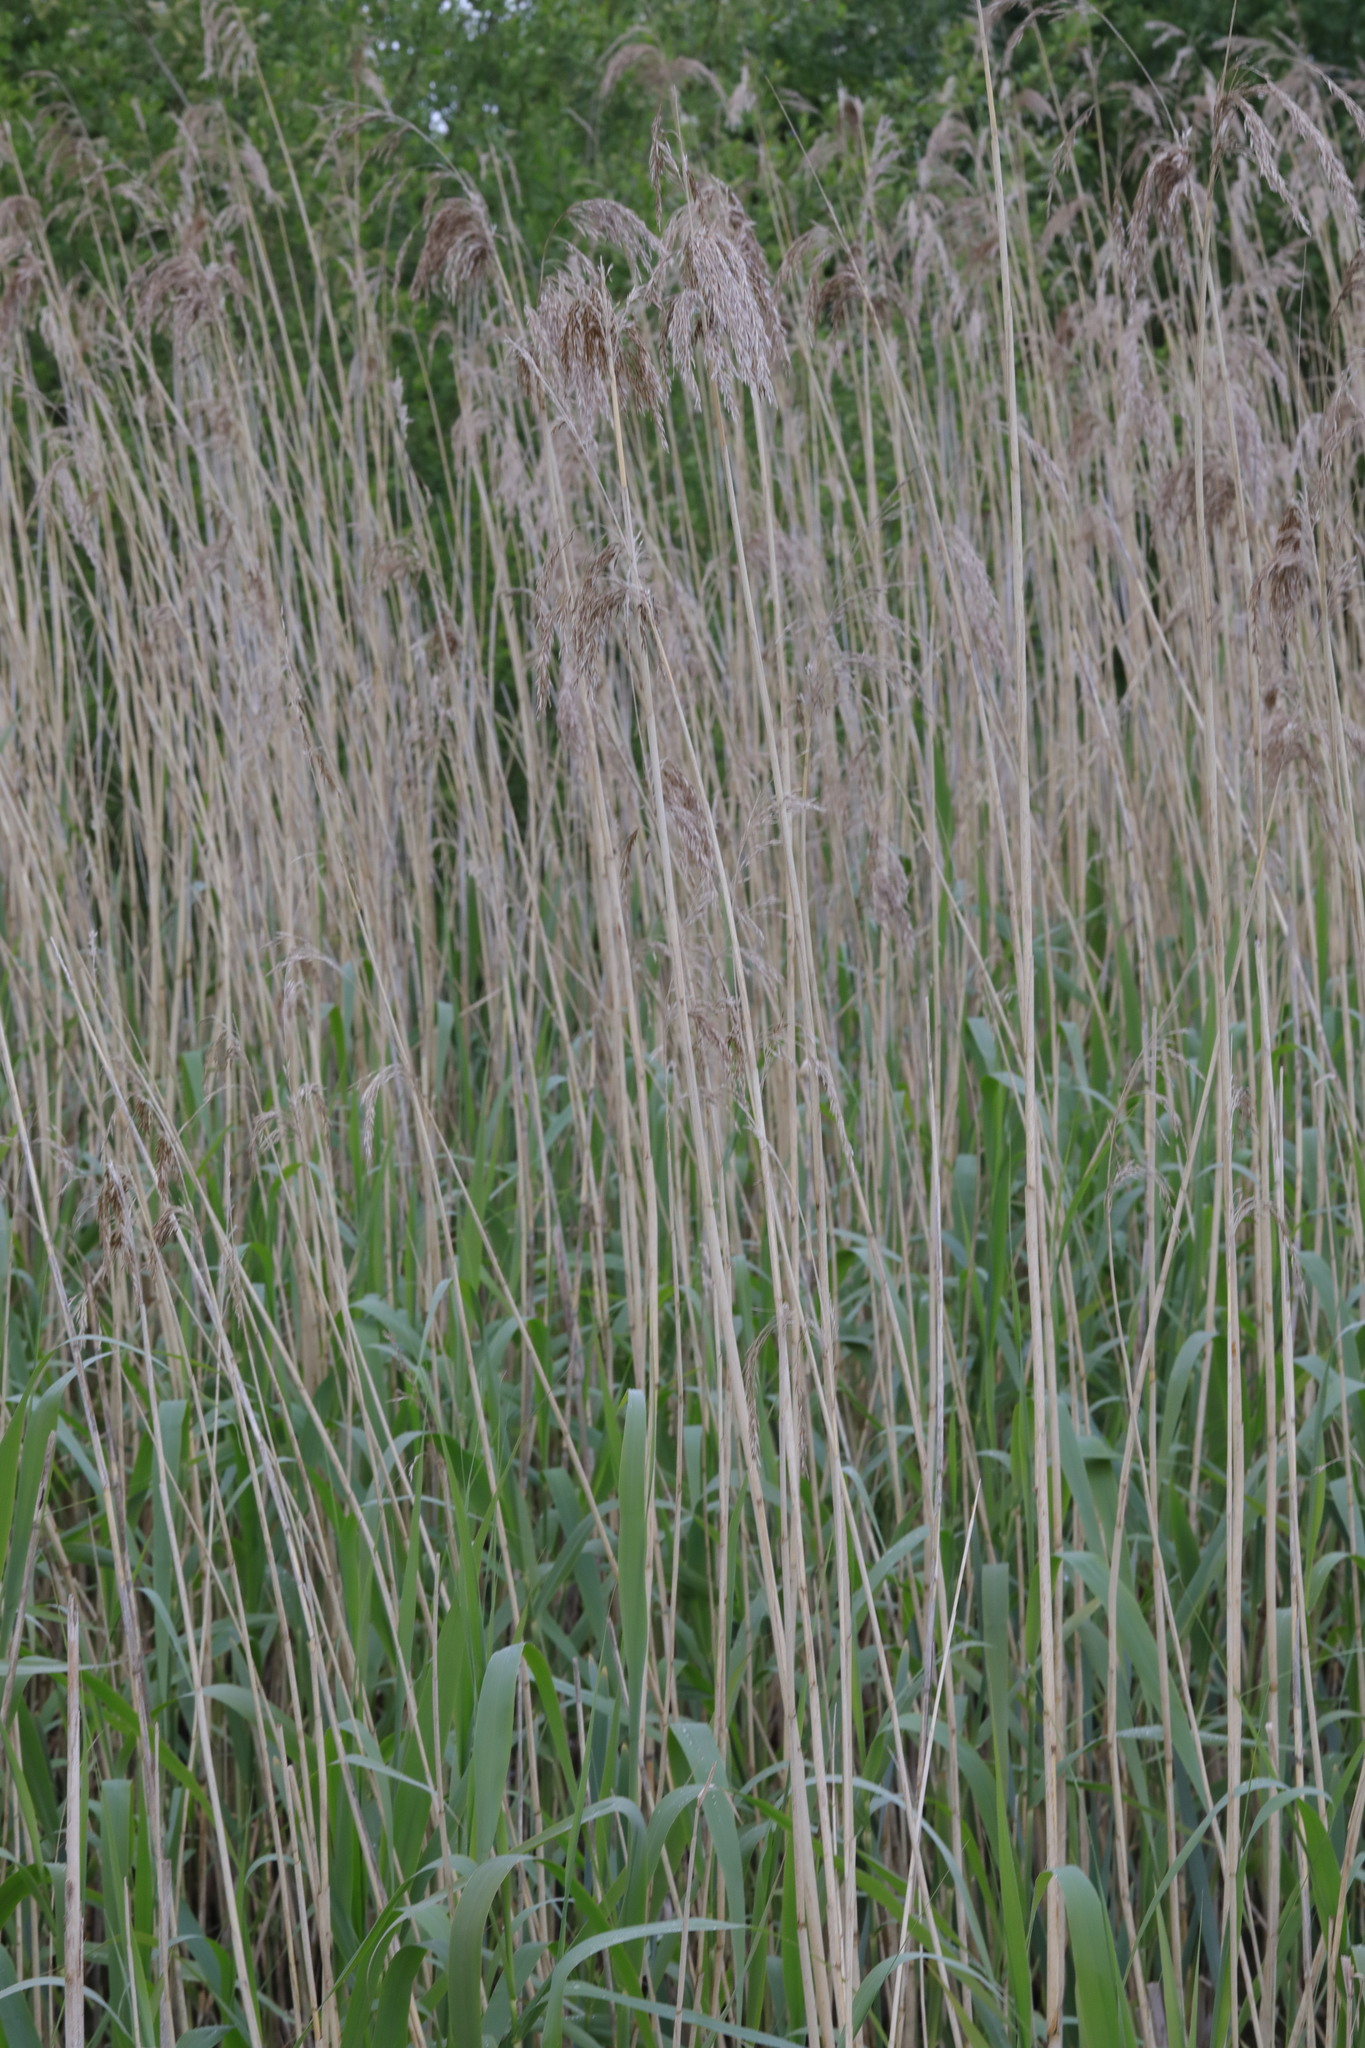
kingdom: Plantae
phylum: Tracheophyta
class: Liliopsida
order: Poales
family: Poaceae
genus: Phragmites
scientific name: Phragmites australis
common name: Common reed
